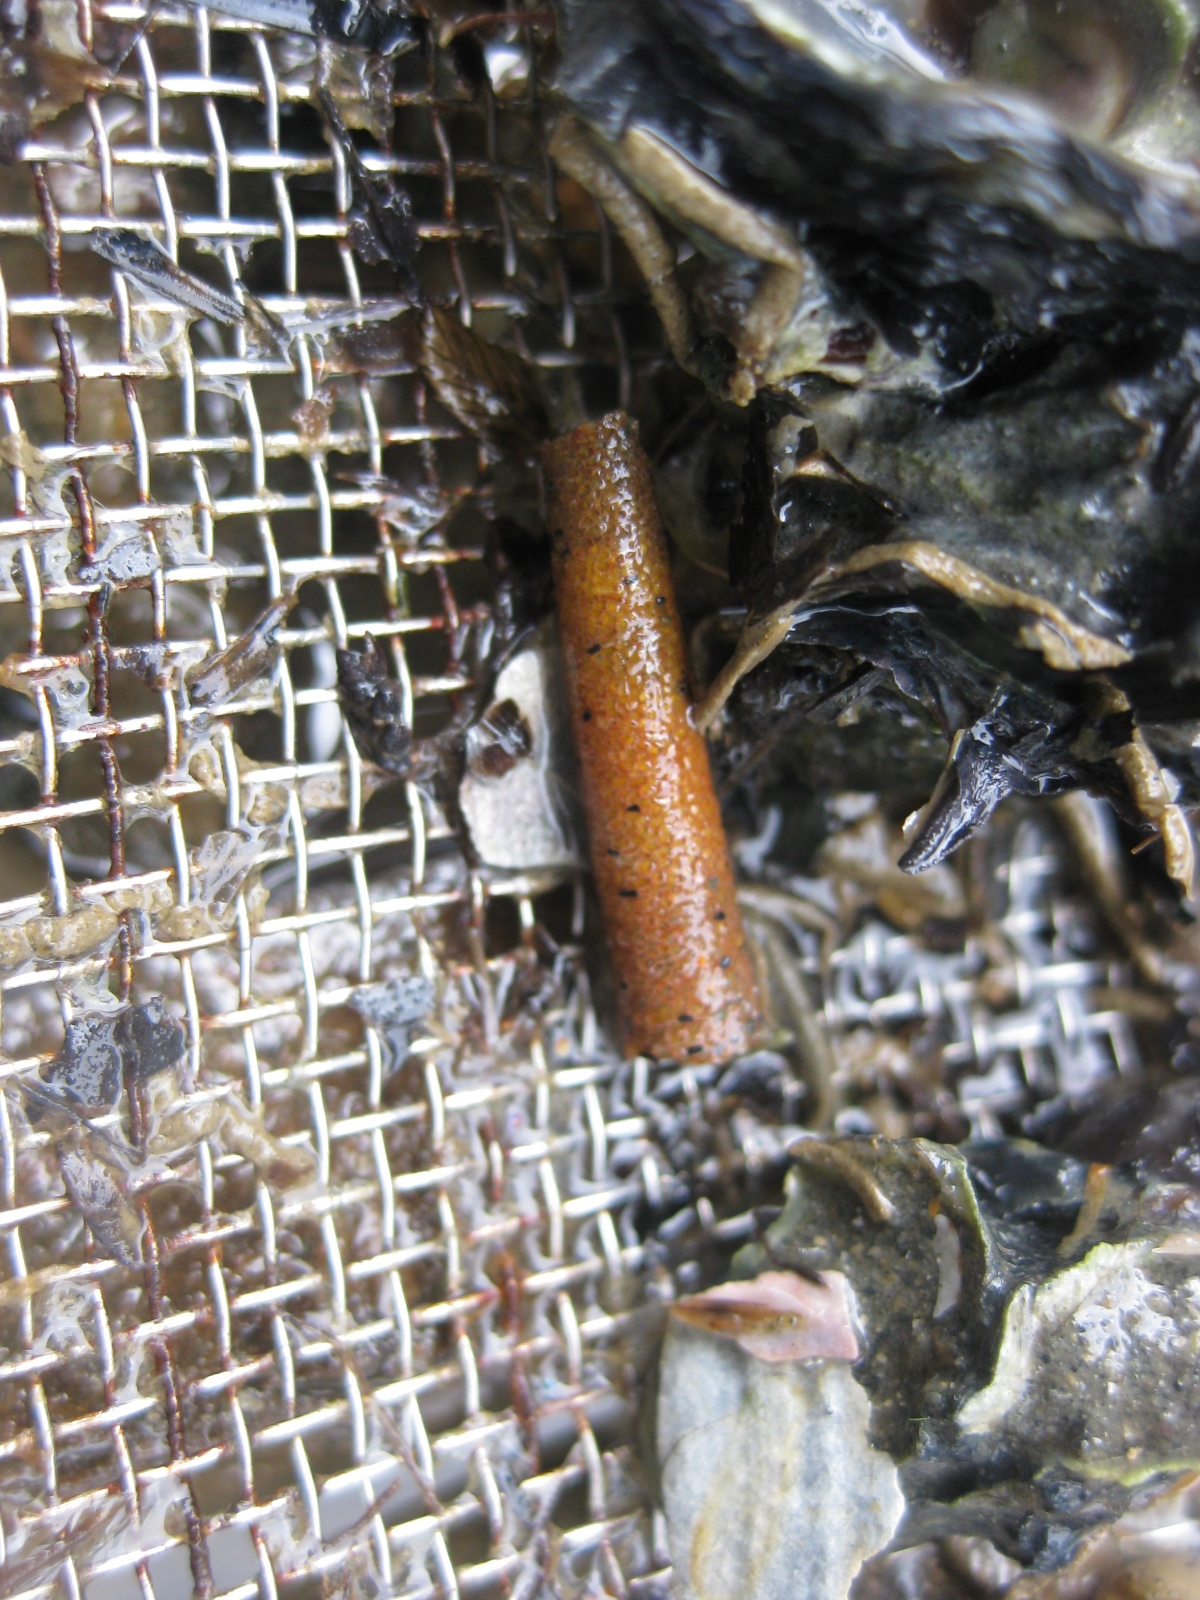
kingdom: Animalia
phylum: Annelida
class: Polychaeta
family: Pectinariidae
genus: Lagis
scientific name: Lagis australis
